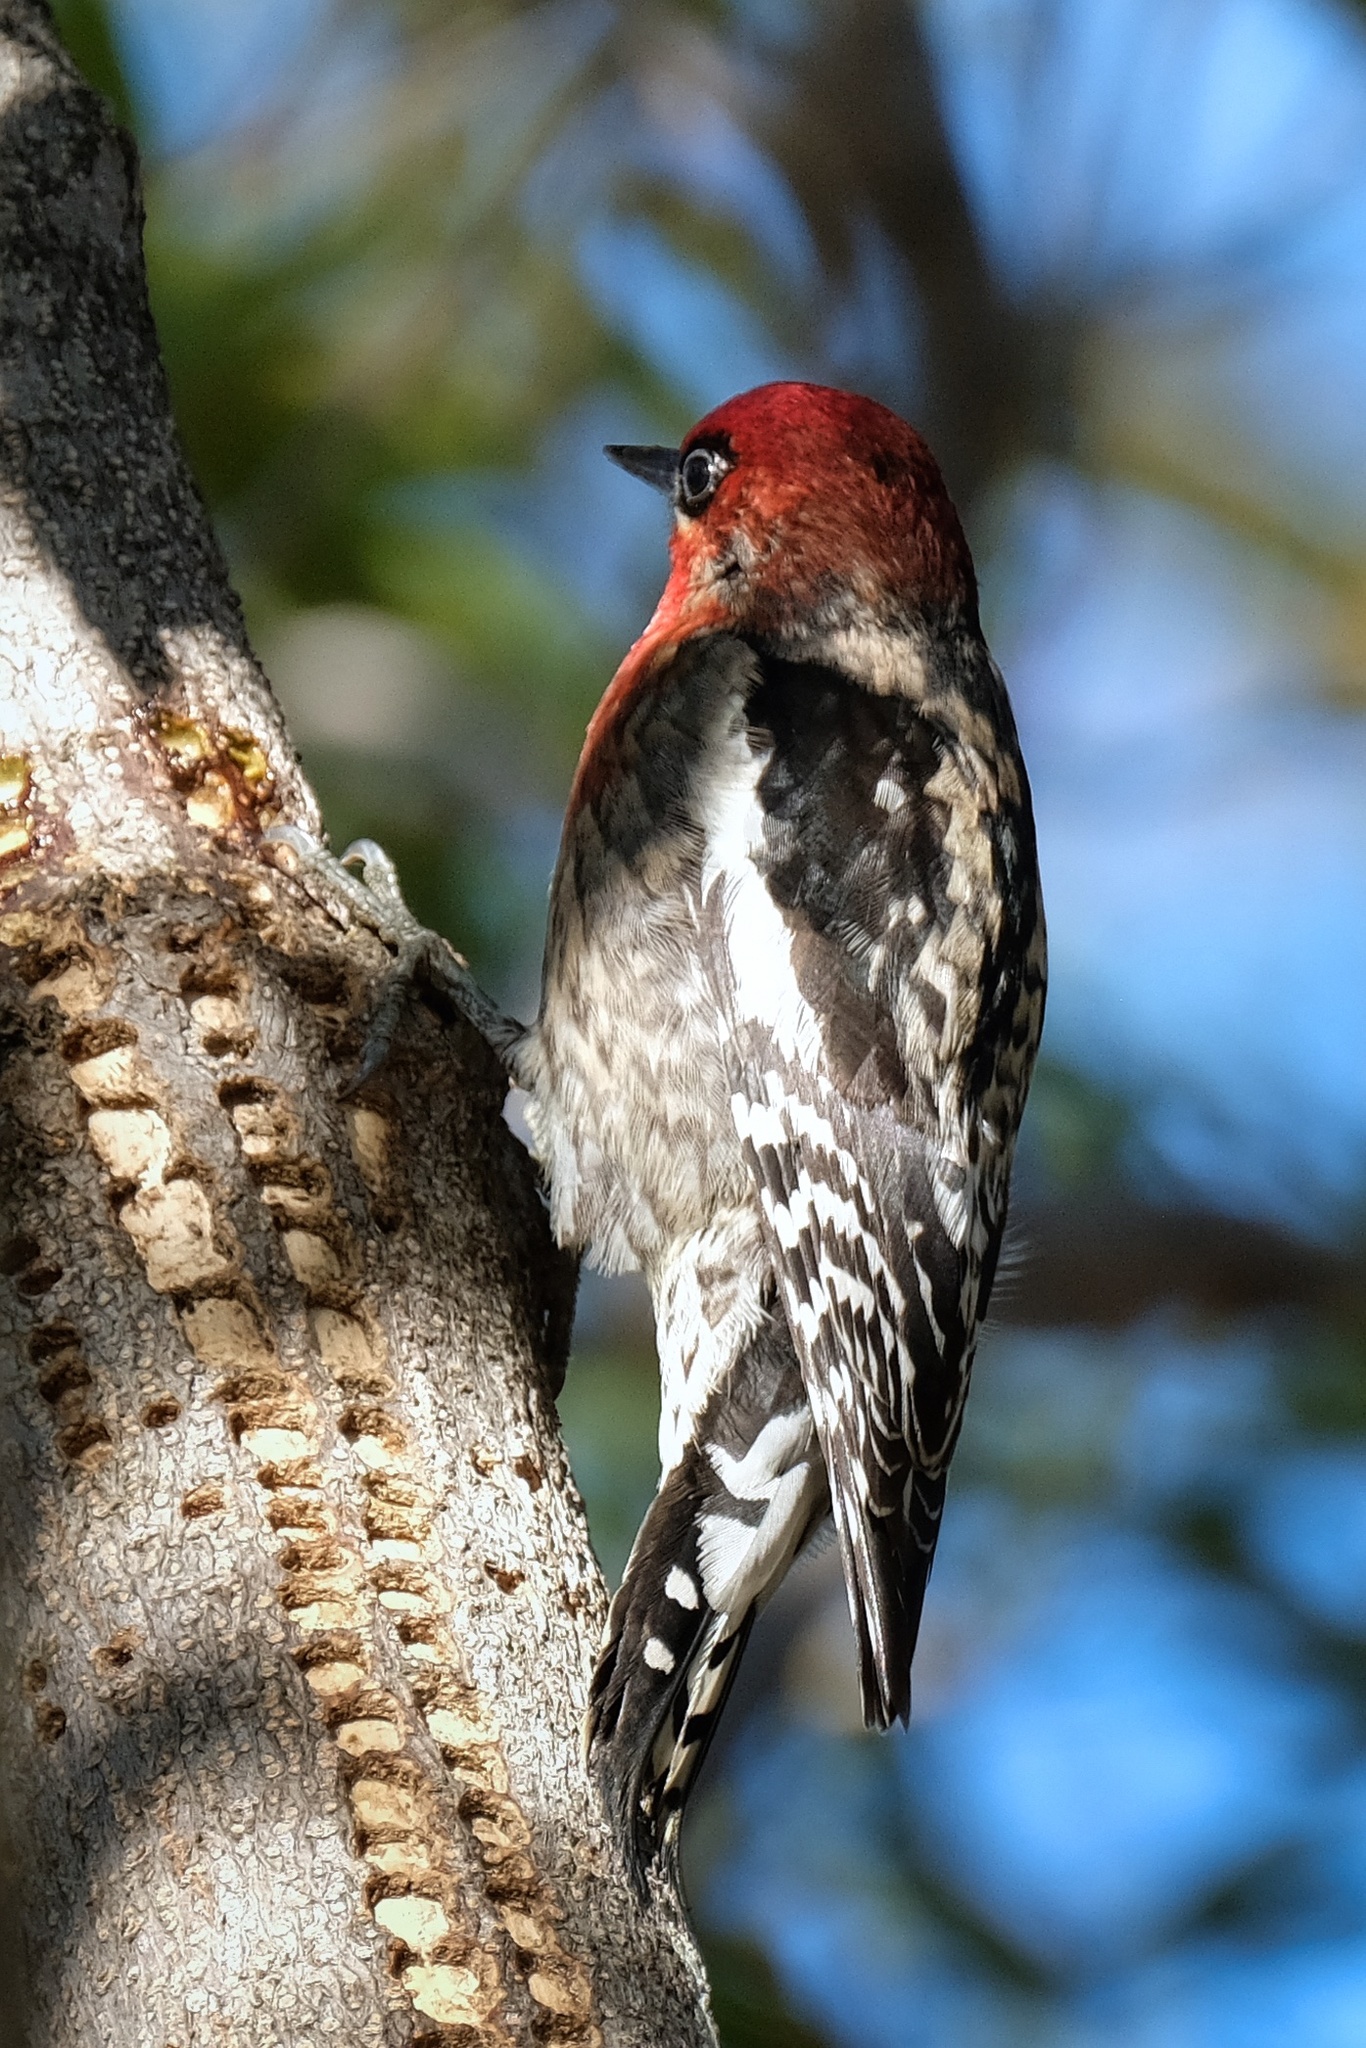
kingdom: Animalia
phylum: Chordata
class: Aves
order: Piciformes
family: Picidae
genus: Sphyrapicus
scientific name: Sphyrapicus ruber
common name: Red-breasted sapsucker
